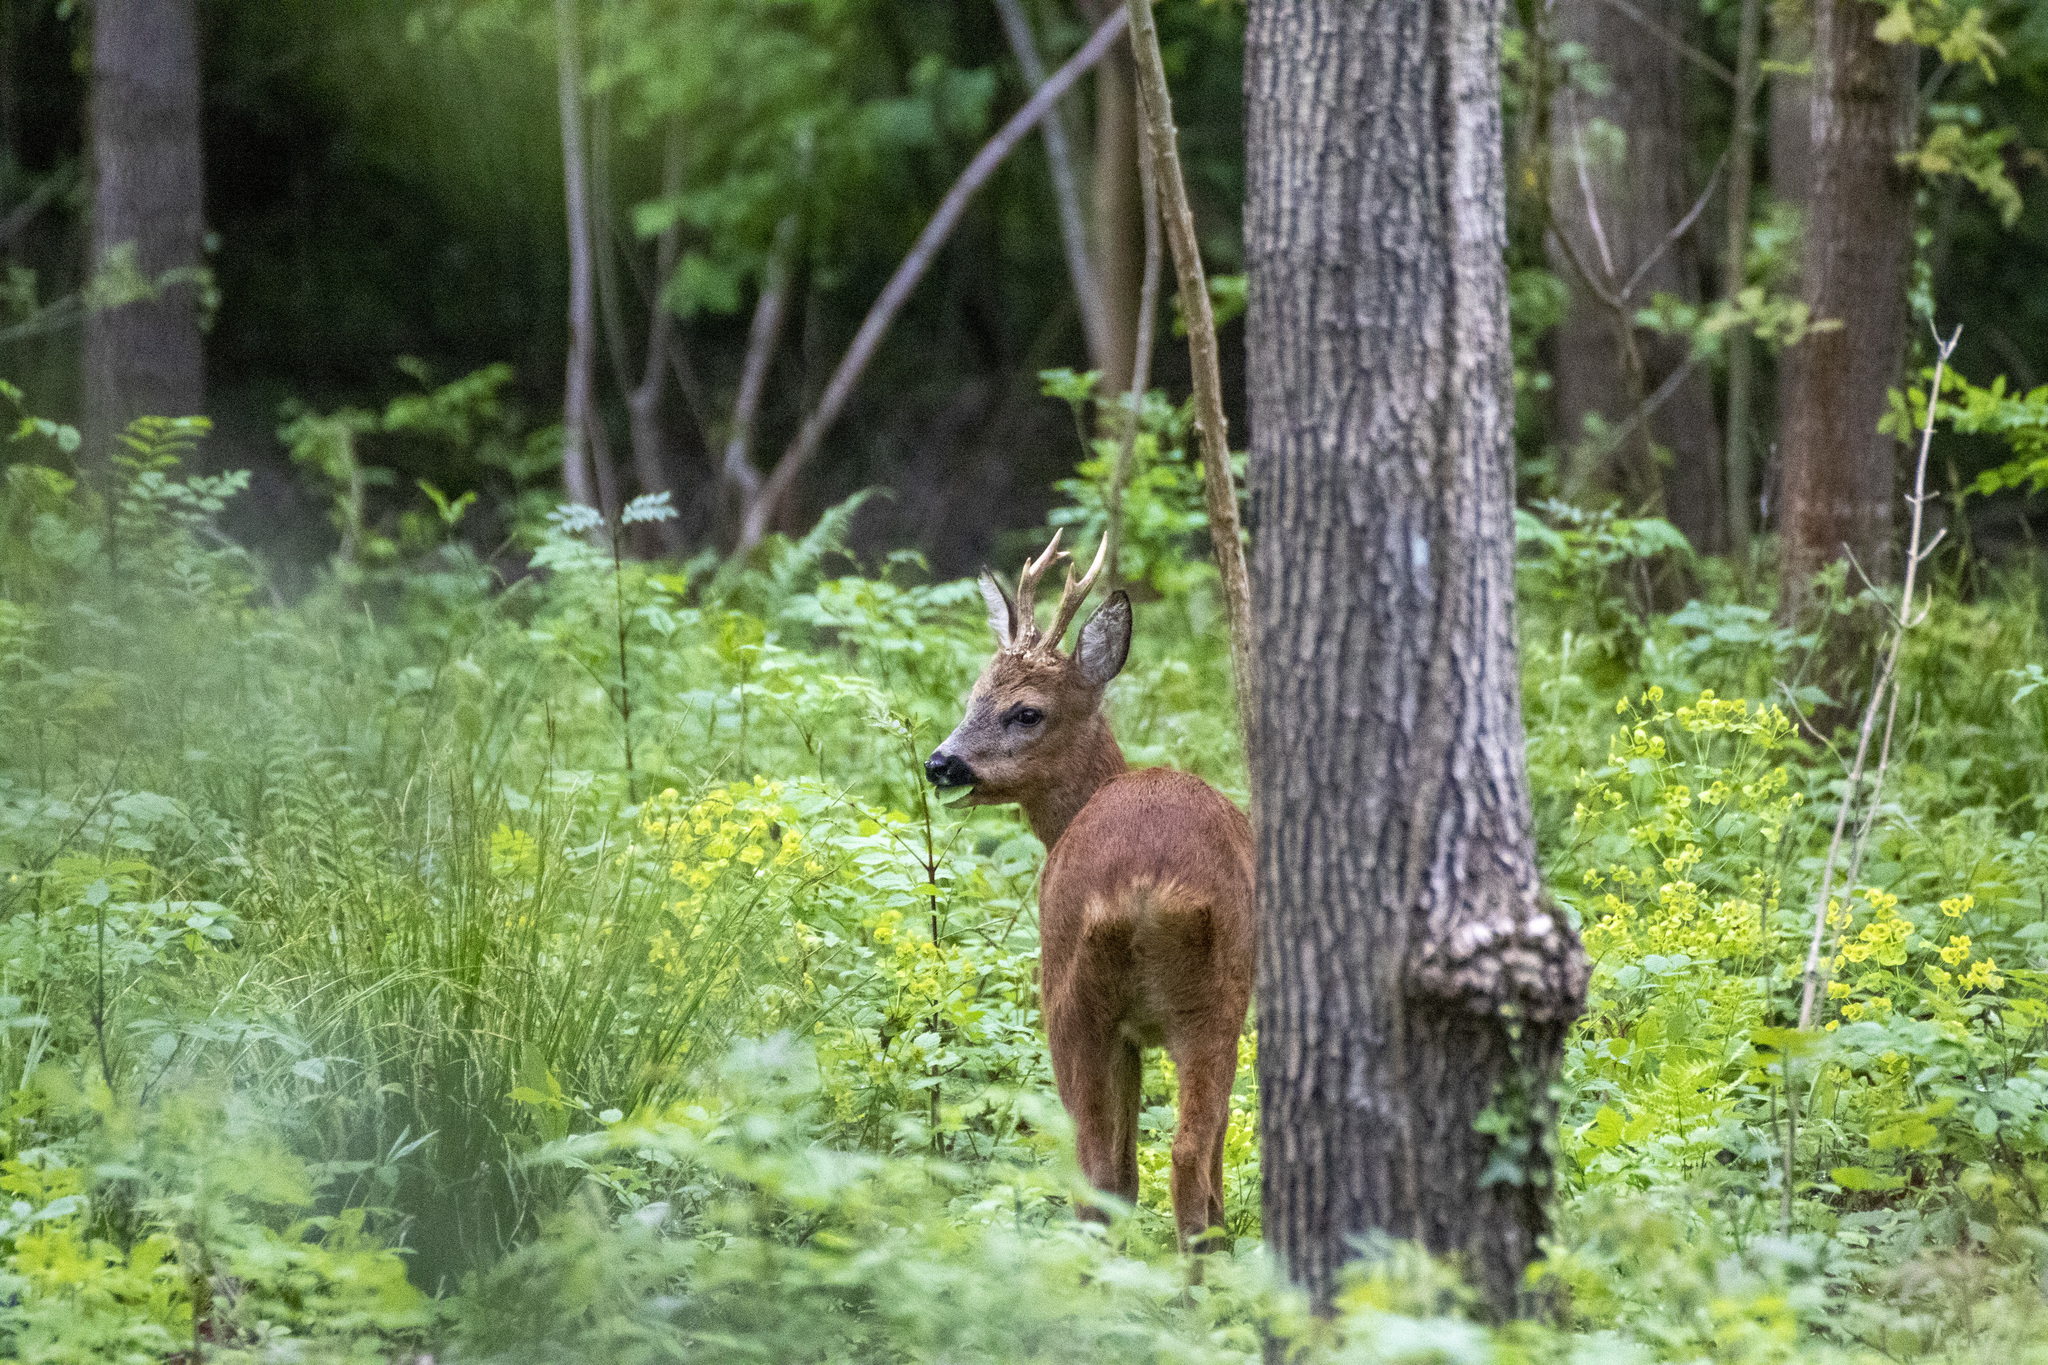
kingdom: Animalia
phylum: Chordata
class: Mammalia
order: Artiodactyla
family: Cervidae
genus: Capreolus
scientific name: Capreolus capreolus
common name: Western roe deer
